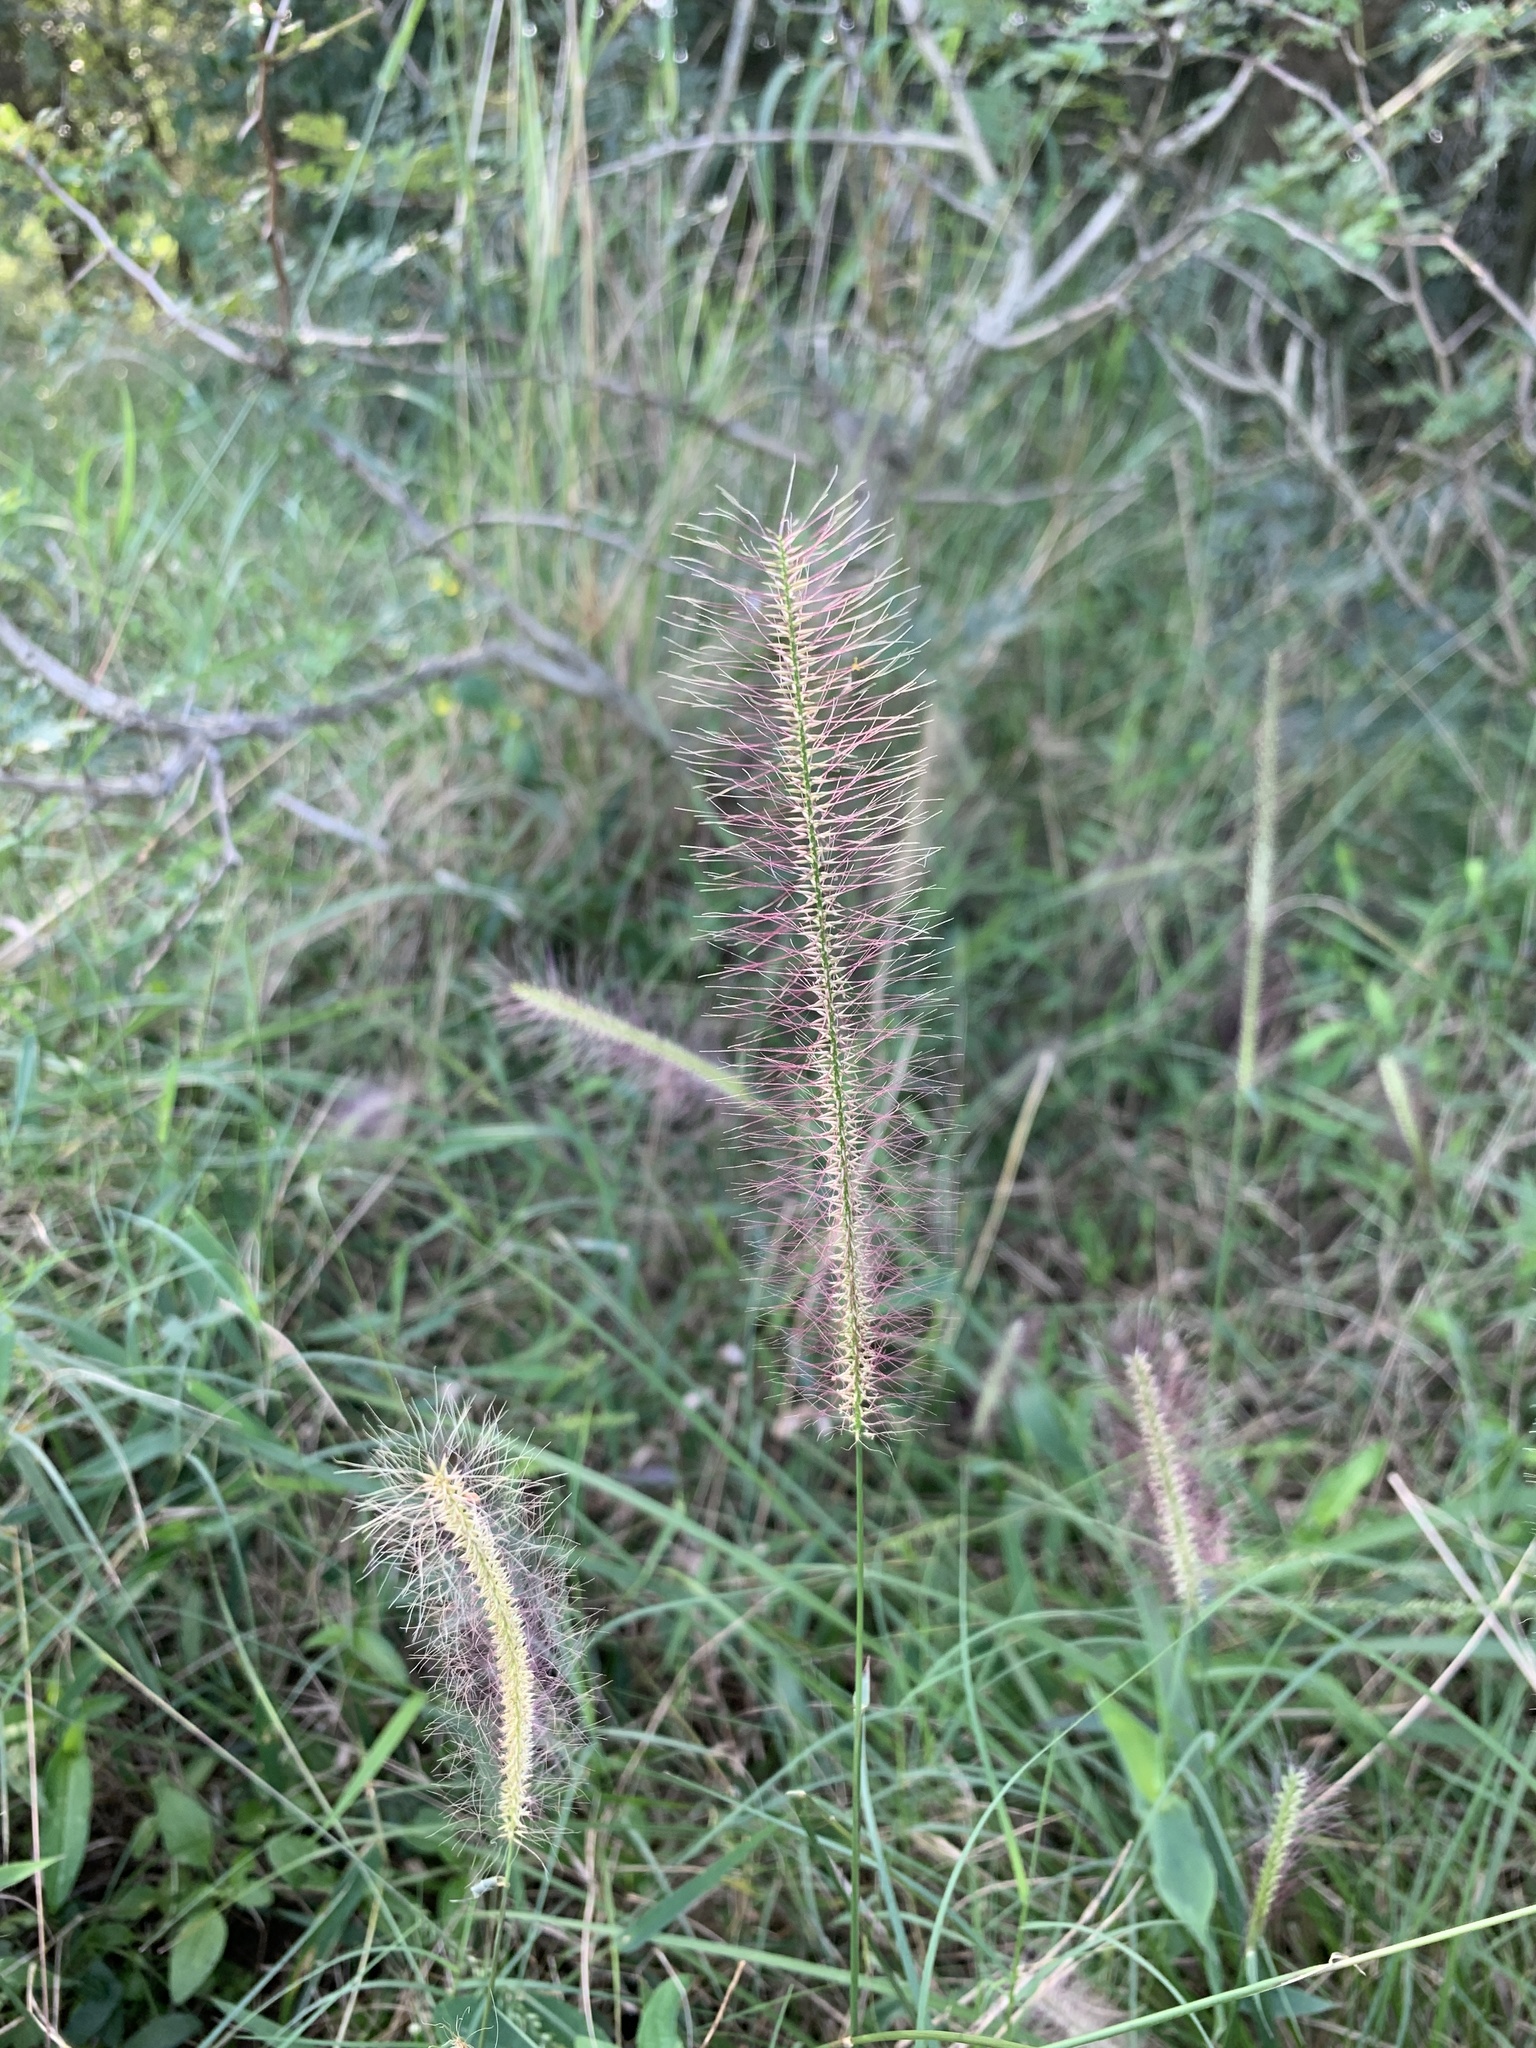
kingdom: Plantae
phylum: Tracheophyta
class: Liliopsida
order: Poales
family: Poaceae
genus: Perotis
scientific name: Perotis patens
